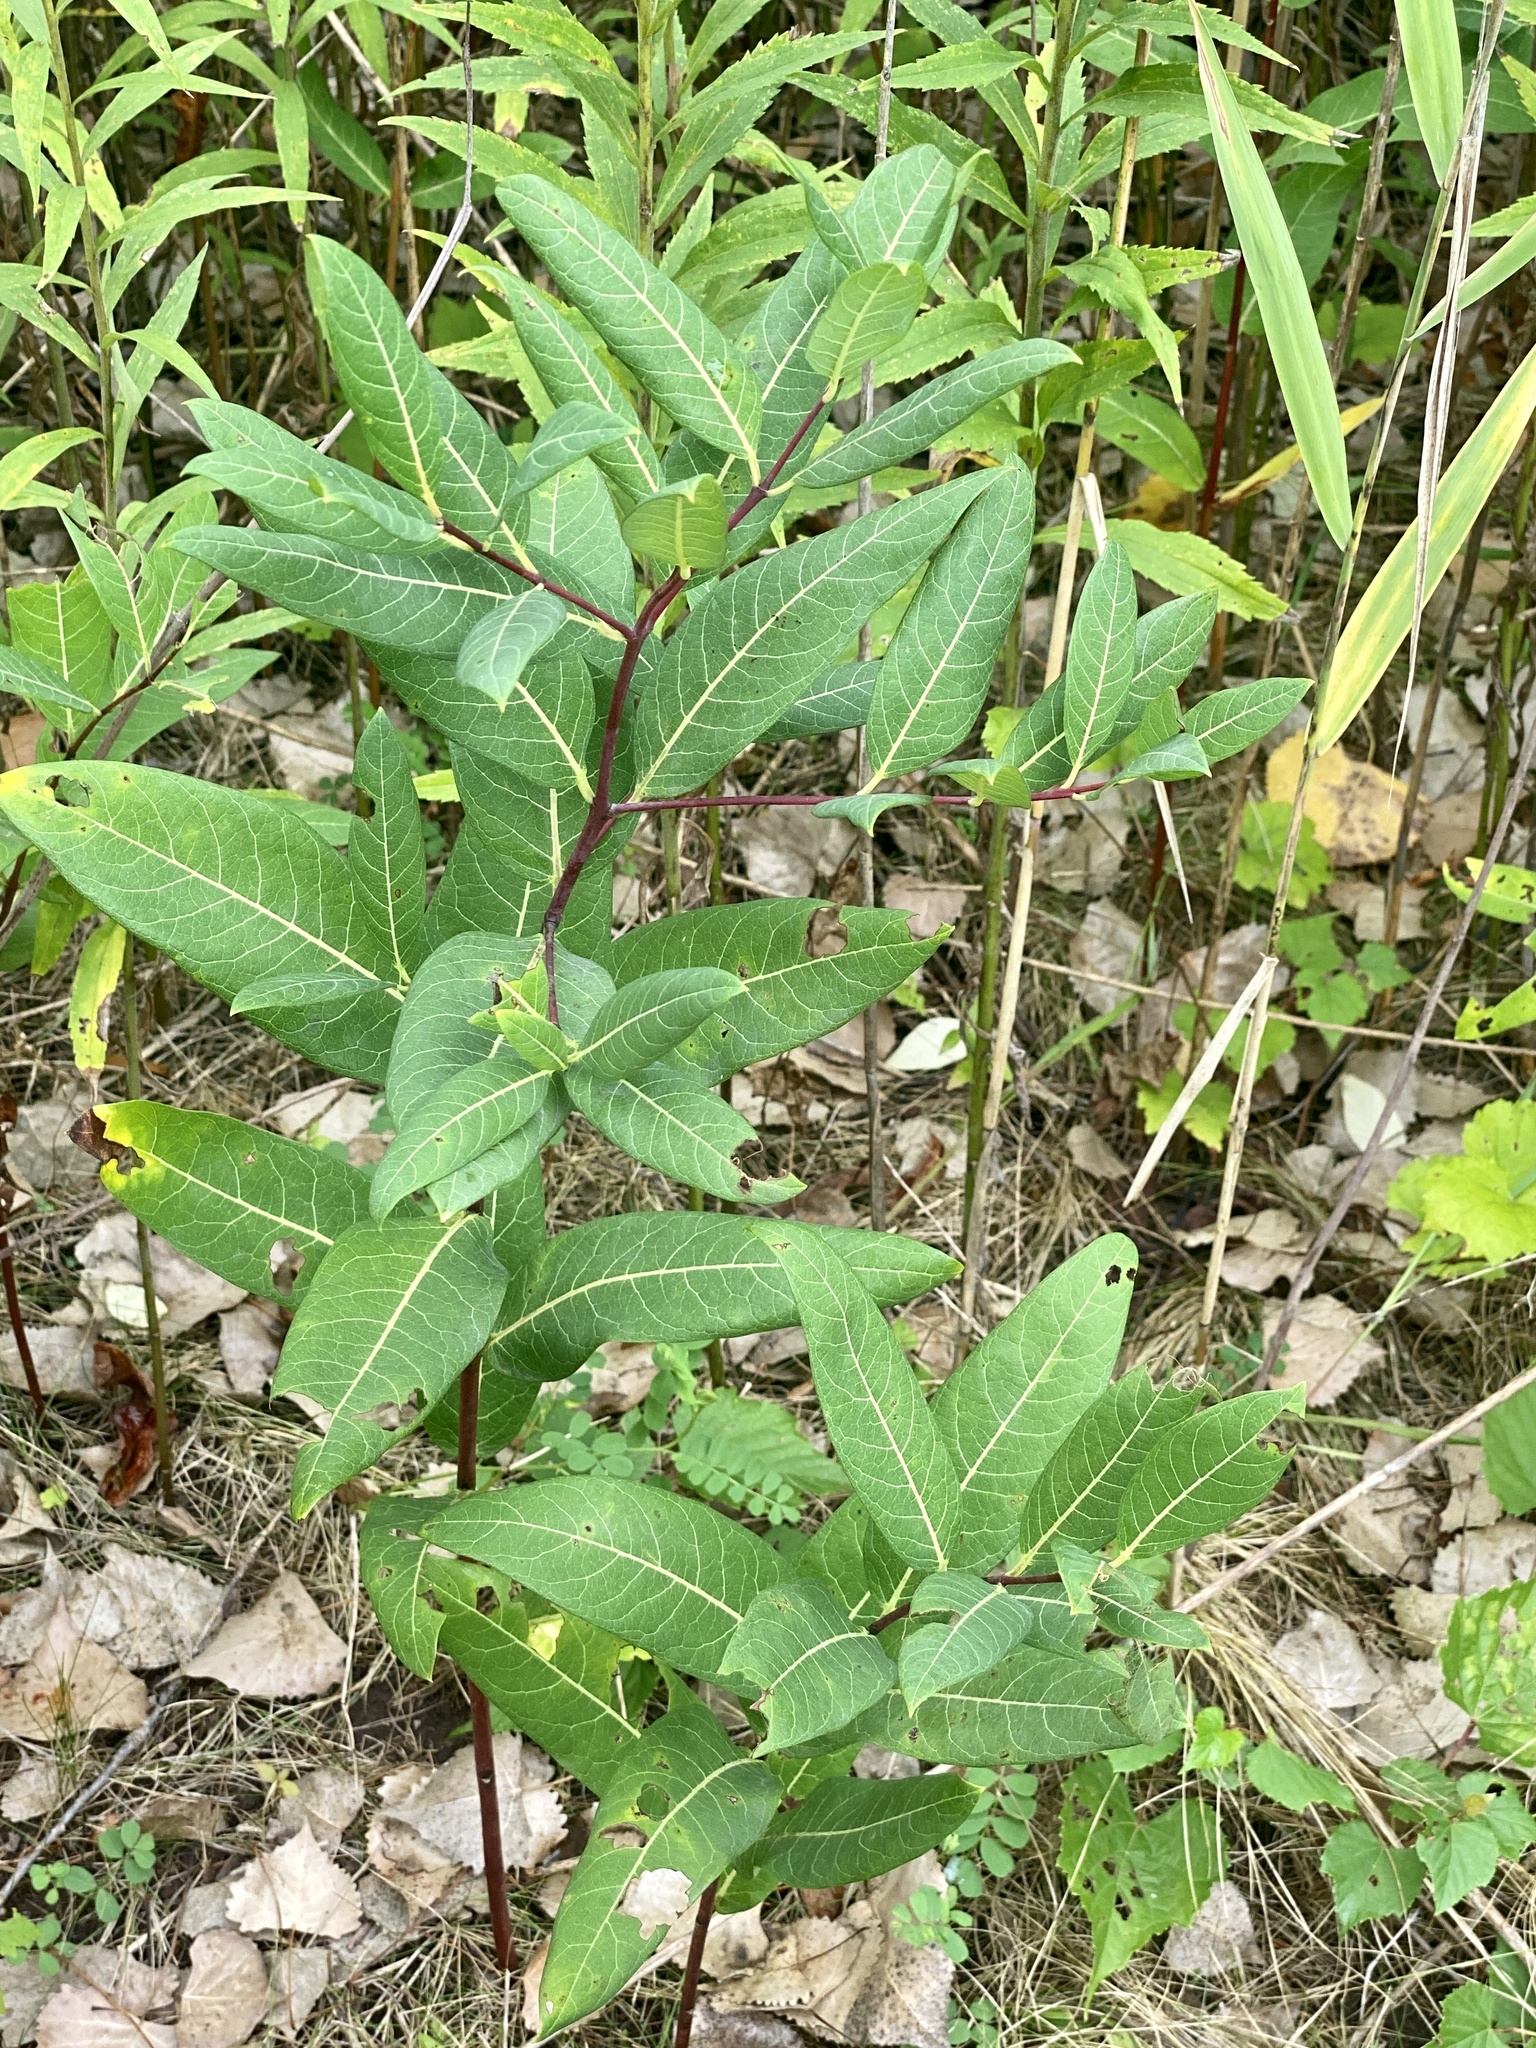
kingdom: Plantae
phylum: Tracheophyta
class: Magnoliopsida
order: Gentianales
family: Apocynaceae
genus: Apocynum
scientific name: Apocynum cannabinum
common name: Hemp dogbane
